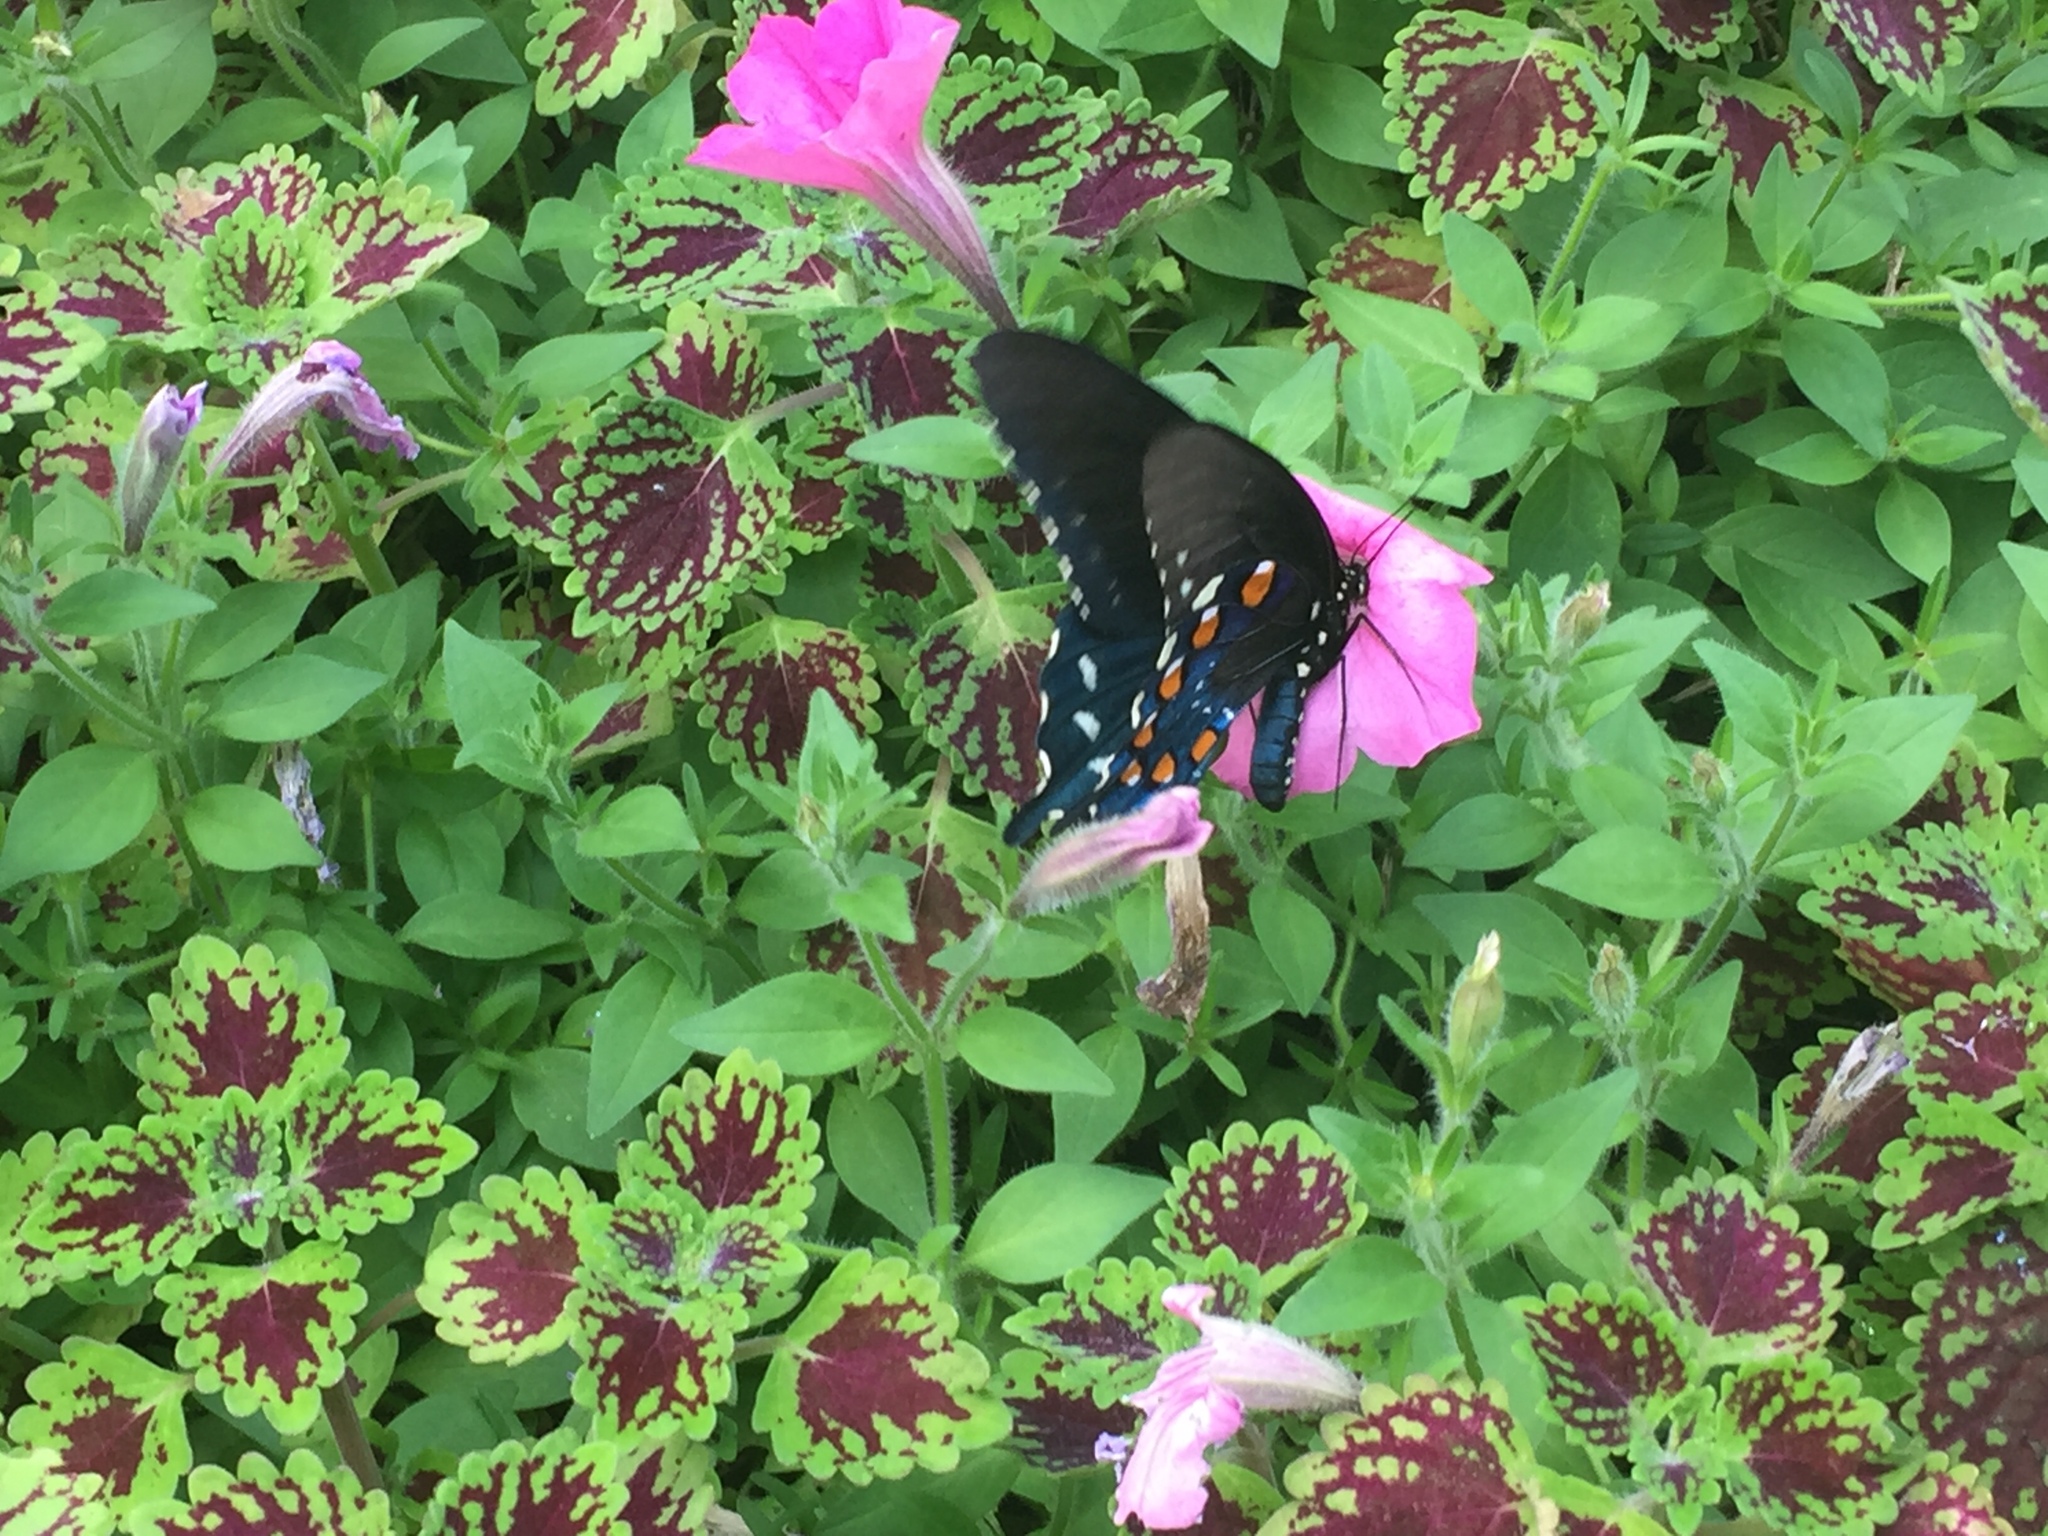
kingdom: Animalia
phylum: Arthropoda
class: Insecta
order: Lepidoptera
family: Papilionidae
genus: Battus
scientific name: Battus philenor
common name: Pipevine swallowtail
